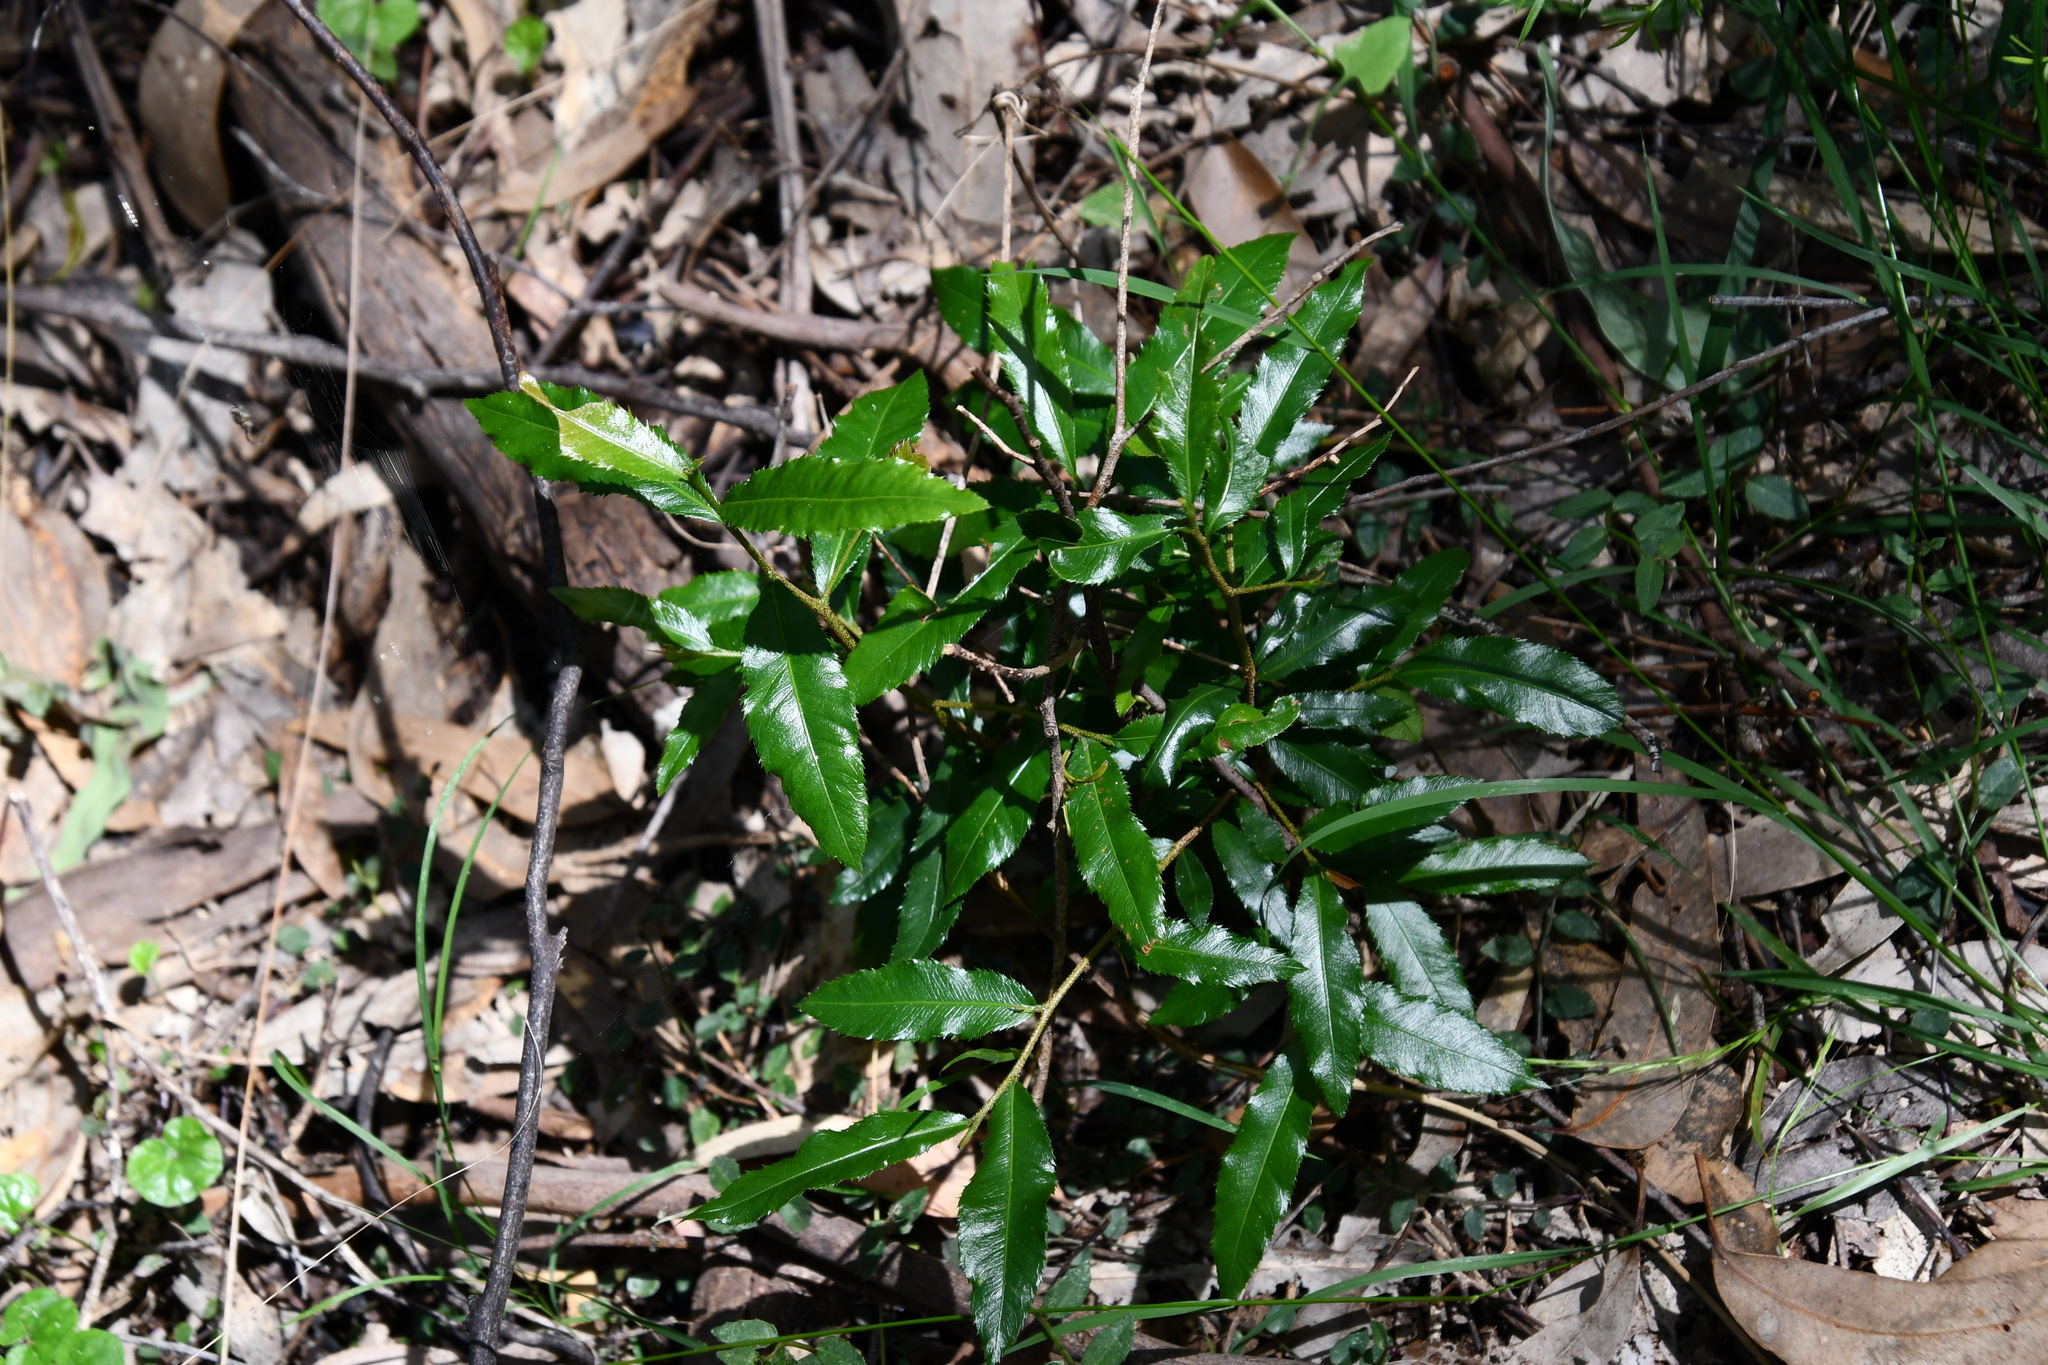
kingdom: Plantae
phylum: Tracheophyta
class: Magnoliopsida
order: Malpighiales
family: Ochnaceae
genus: Ochna
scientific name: Ochna serrulata
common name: Mickey mouse plant
